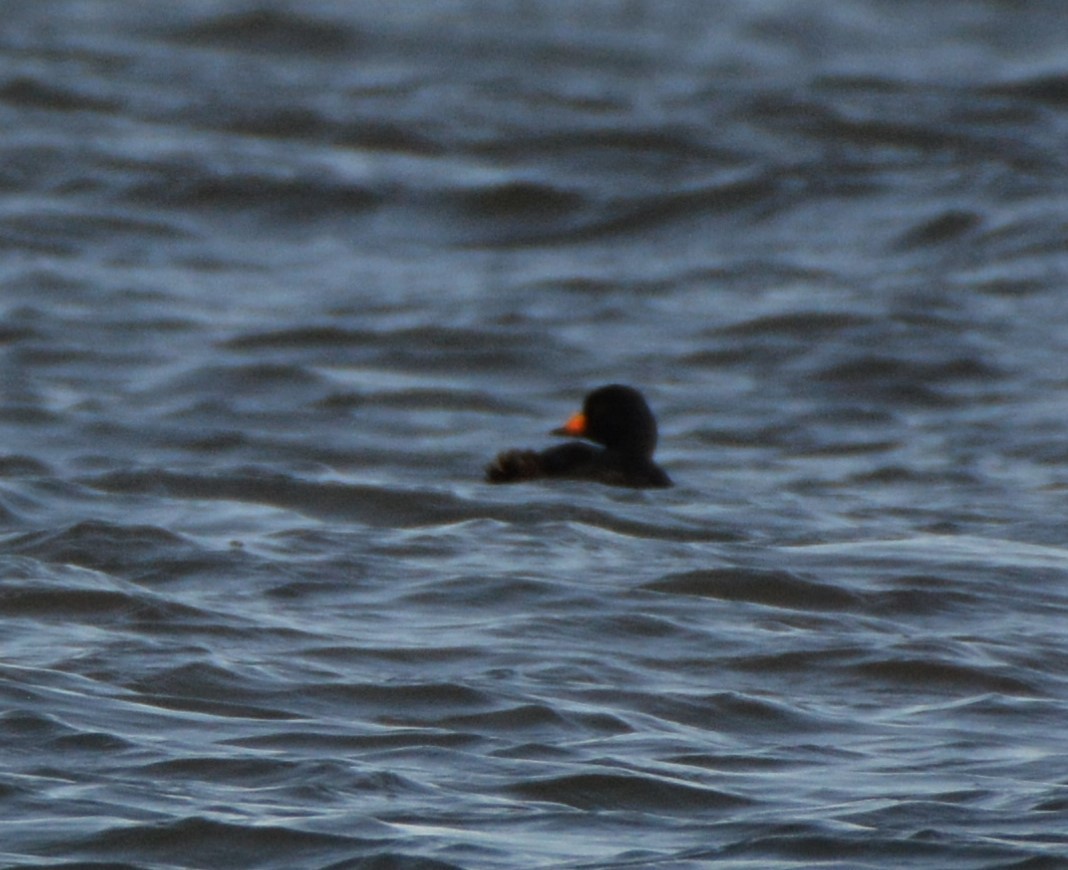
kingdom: Animalia
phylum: Chordata
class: Aves
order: Anseriformes
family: Anatidae
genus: Melanitta
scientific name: Melanitta americana
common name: Black scoter
